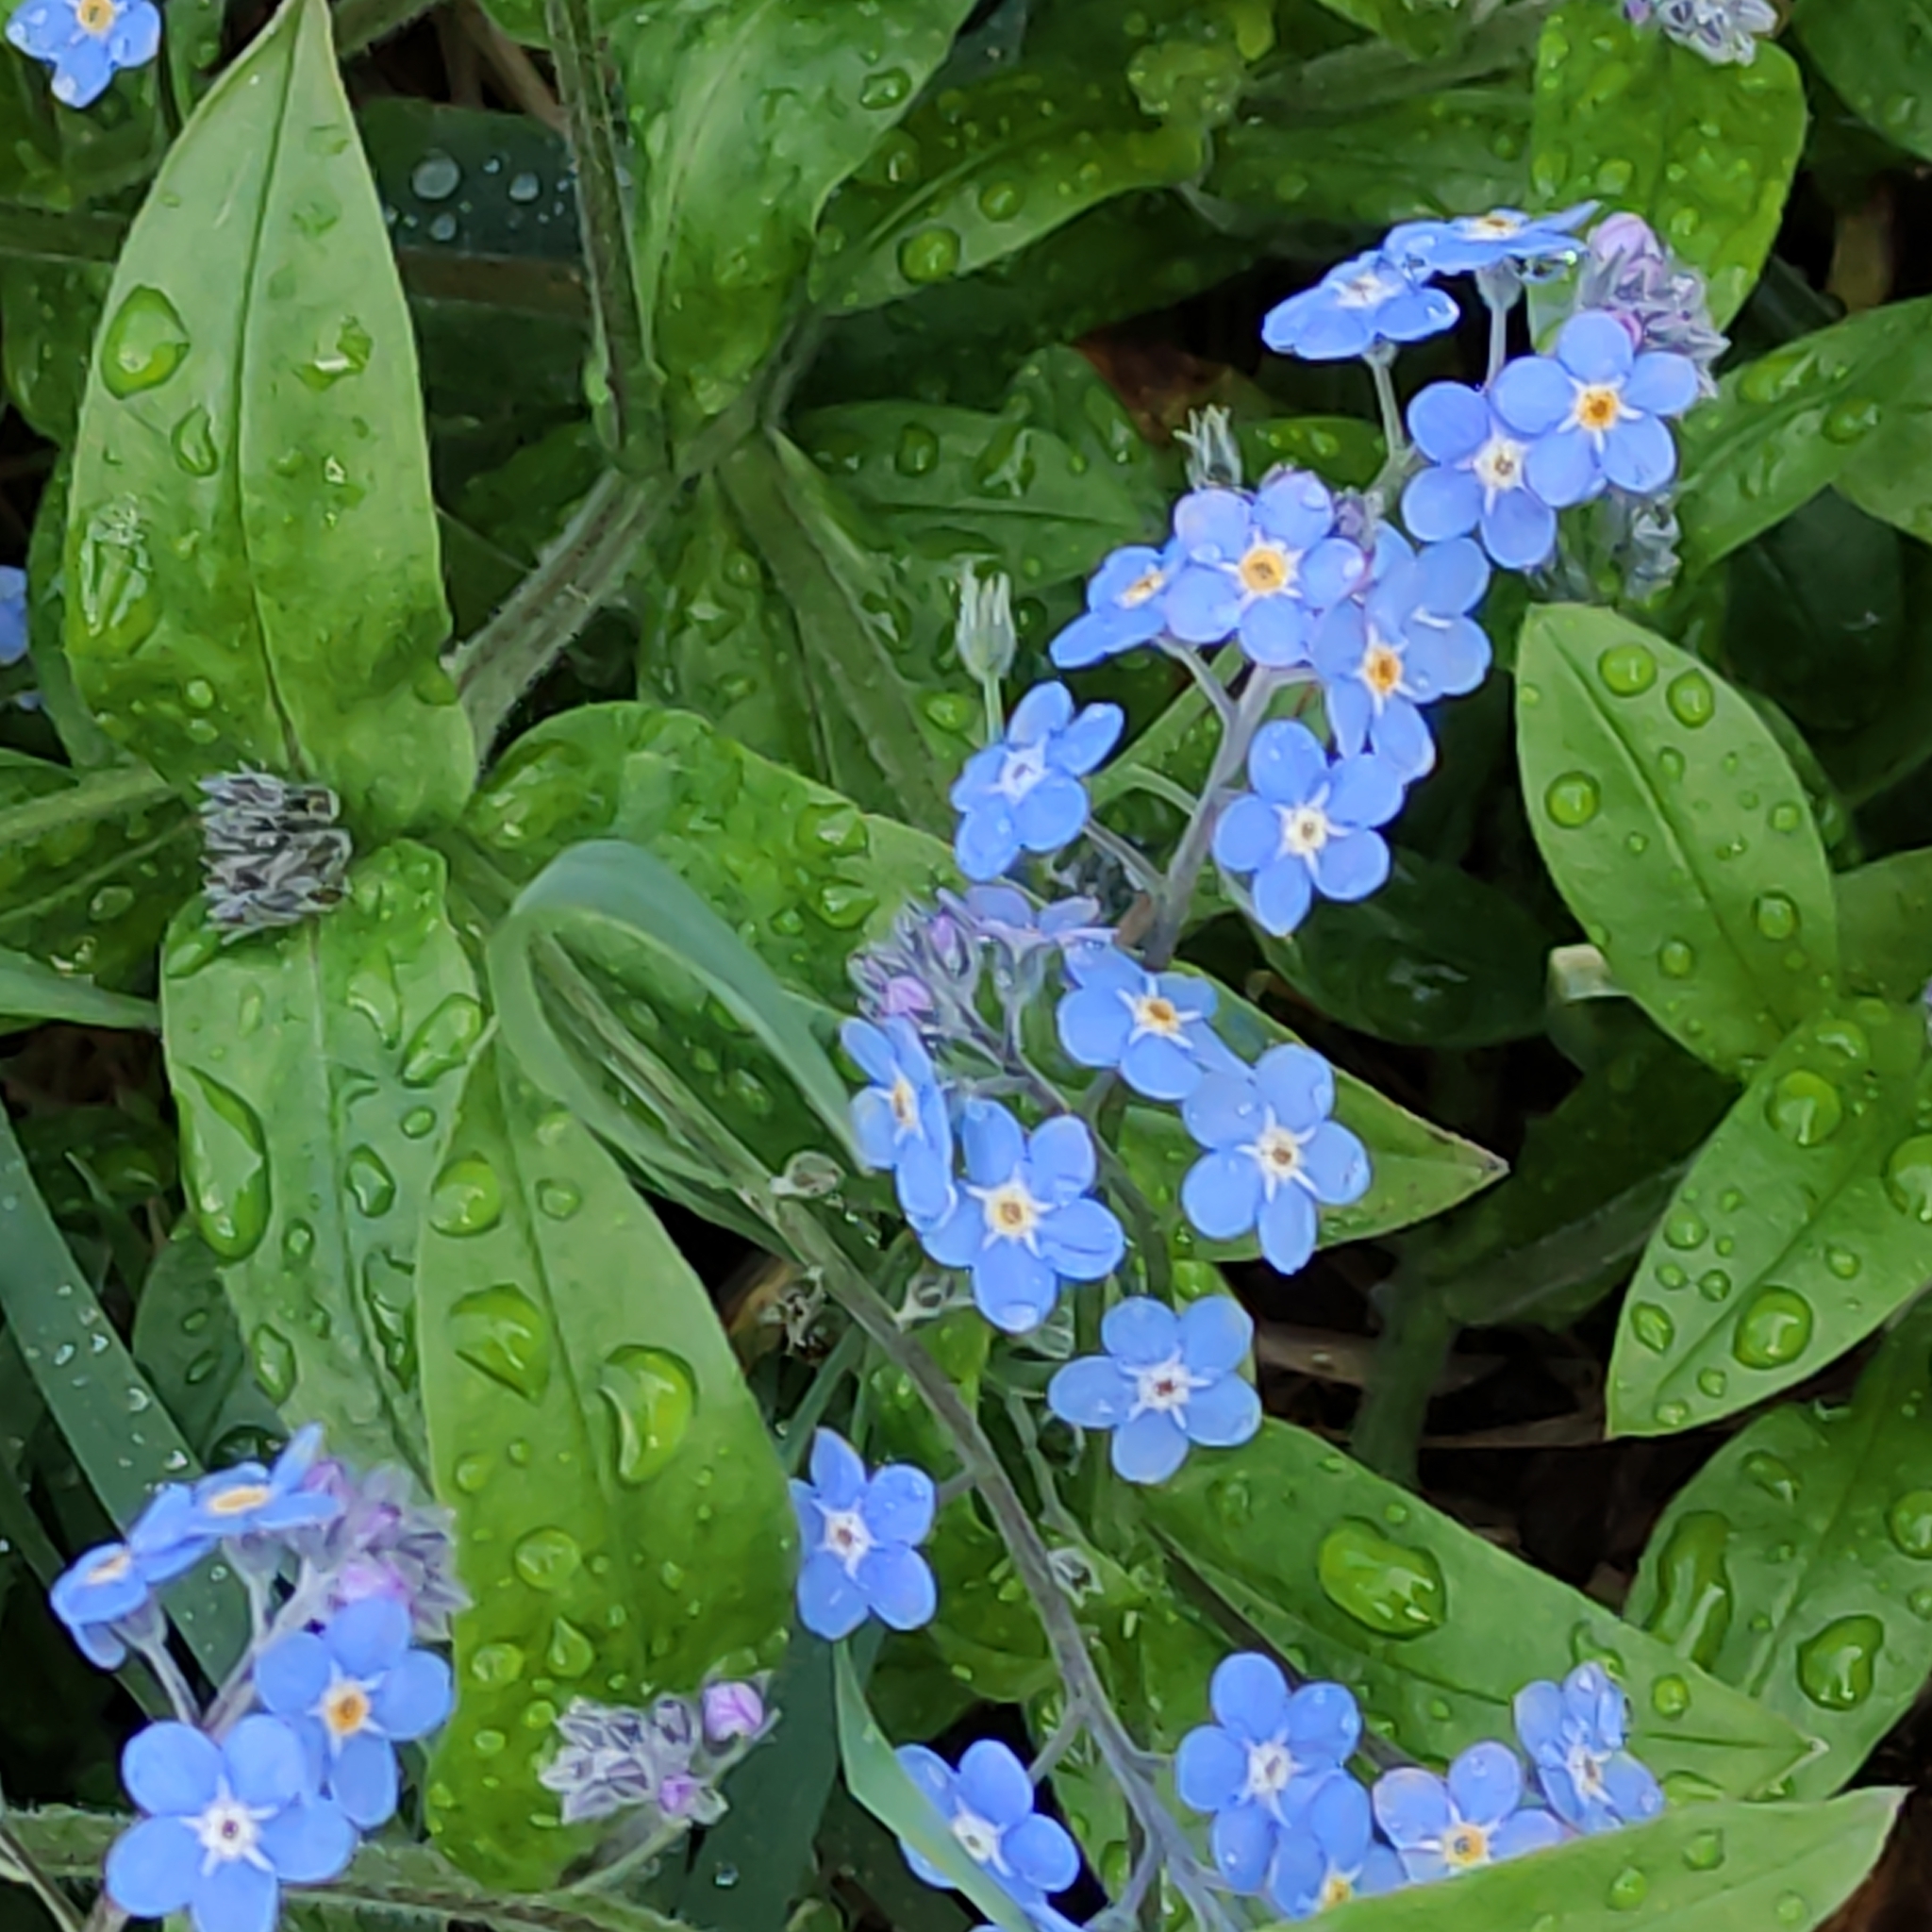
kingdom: Plantae
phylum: Tracheophyta
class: Magnoliopsida
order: Boraginales
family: Boraginaceae
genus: Myosotis
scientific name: Myosotis sylvatica
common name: Wood forget-me-not
